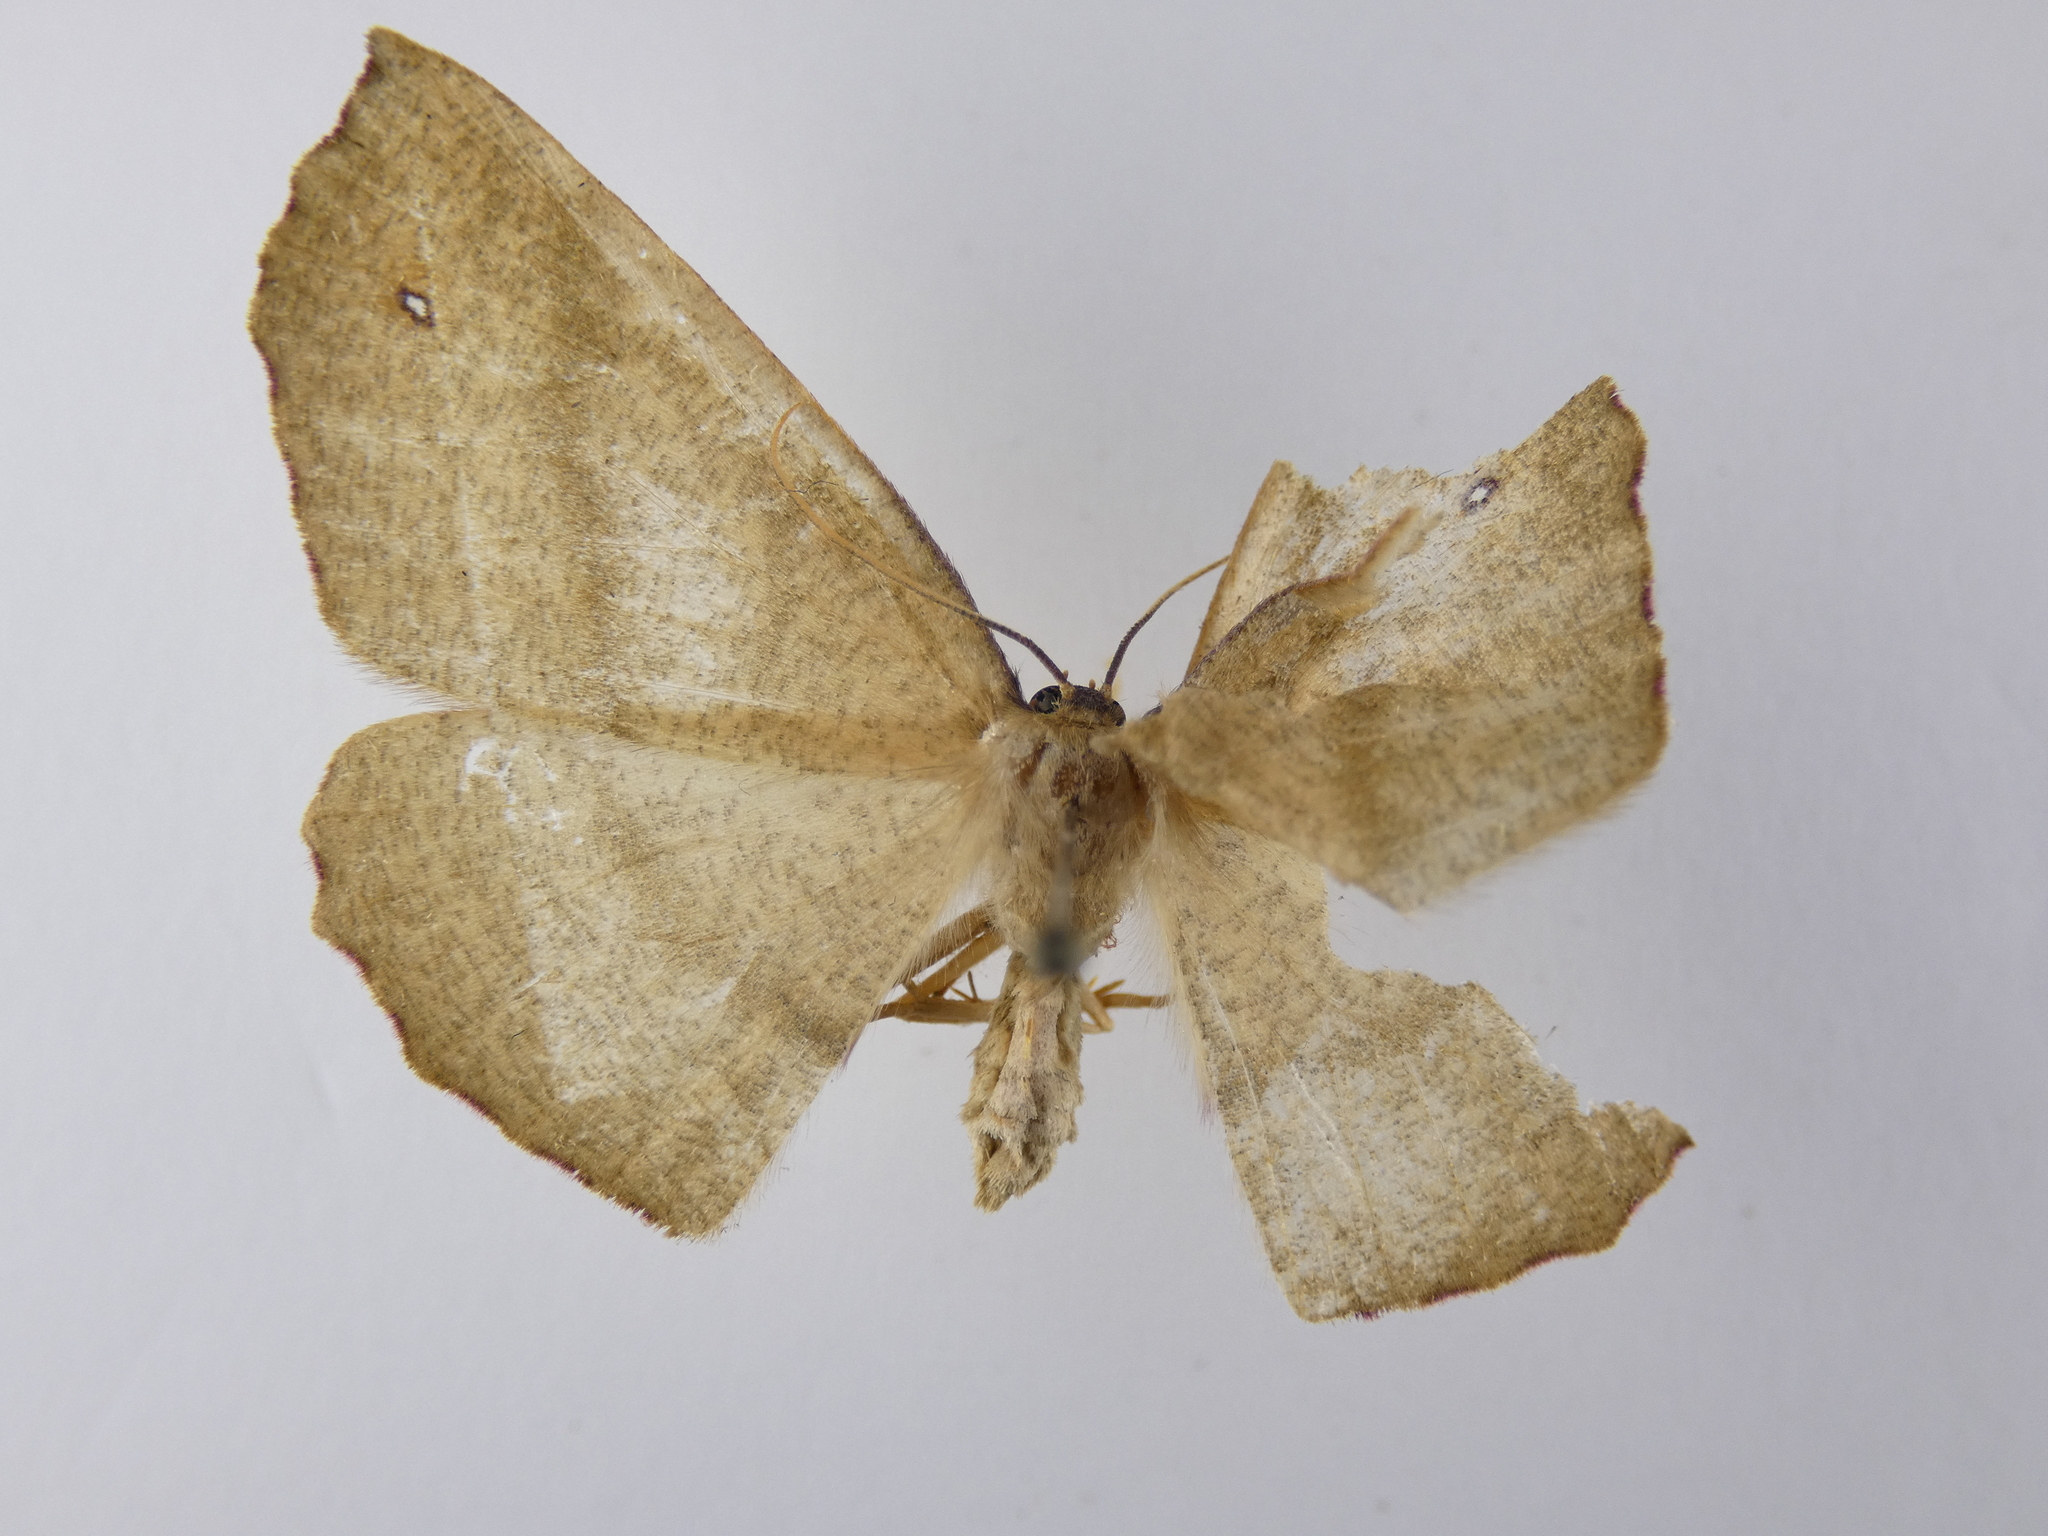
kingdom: Animalia
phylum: Arthropoda
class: Insecta
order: Lepidoptera
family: Geometridae
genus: Xyridacma
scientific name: Xyridacma alectoraria
